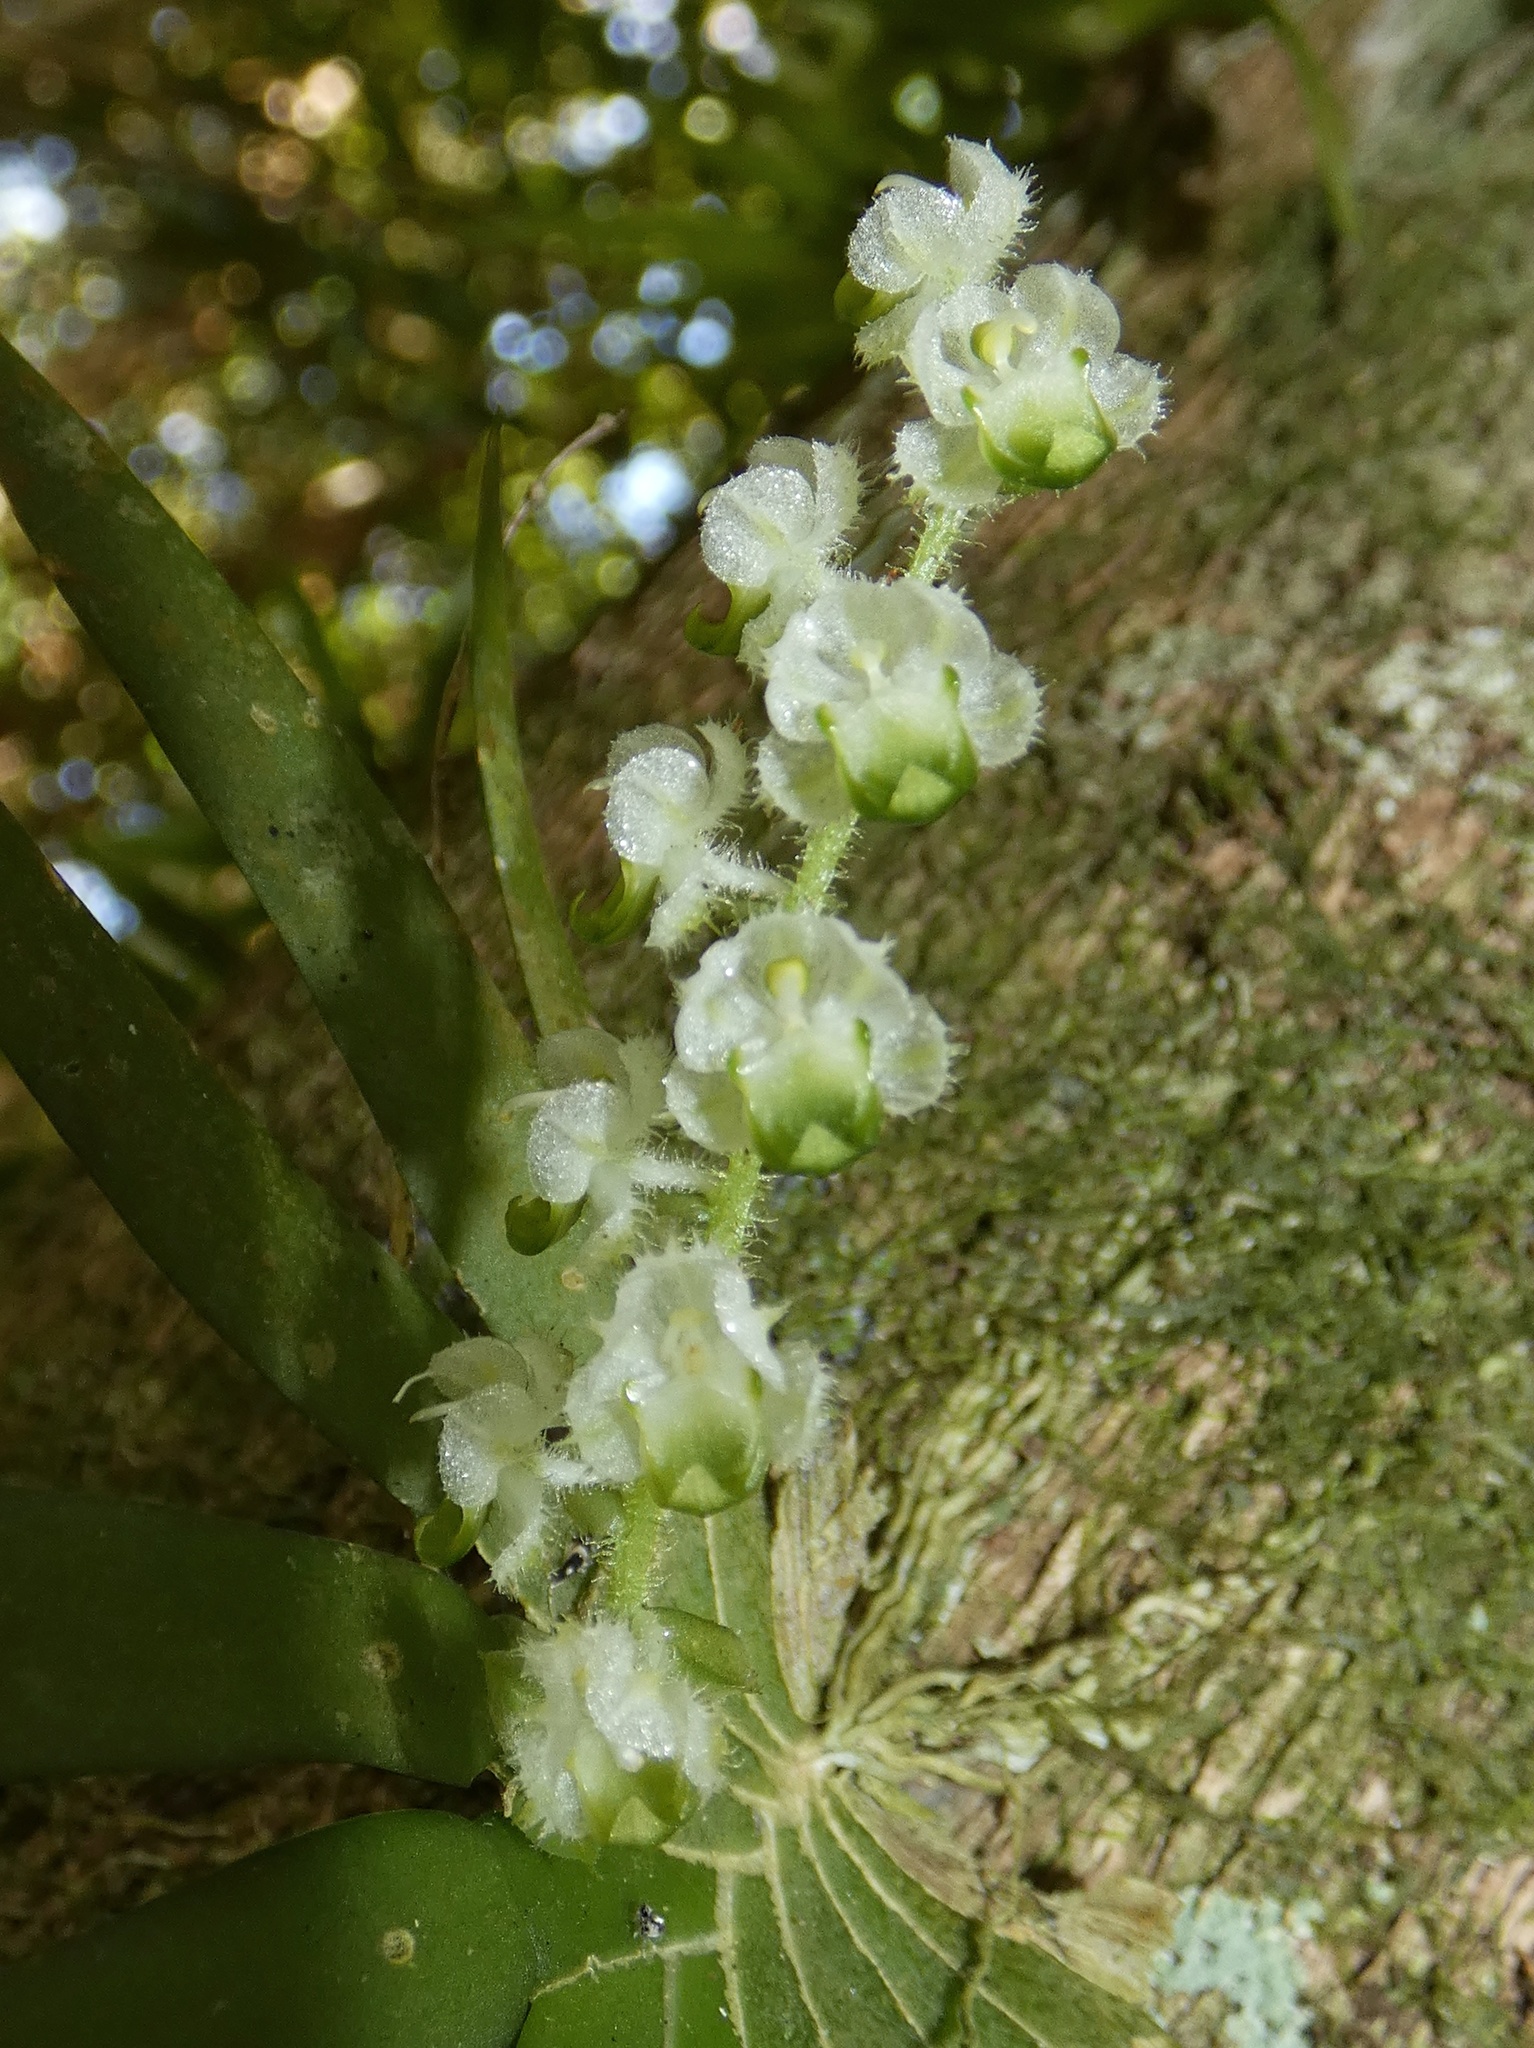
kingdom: Plantae
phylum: Tracheophyta
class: Liliopsida
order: Asparagales
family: Orchidaceae
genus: Ornithocephalus
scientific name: Ornithocephalus cochleariformis
